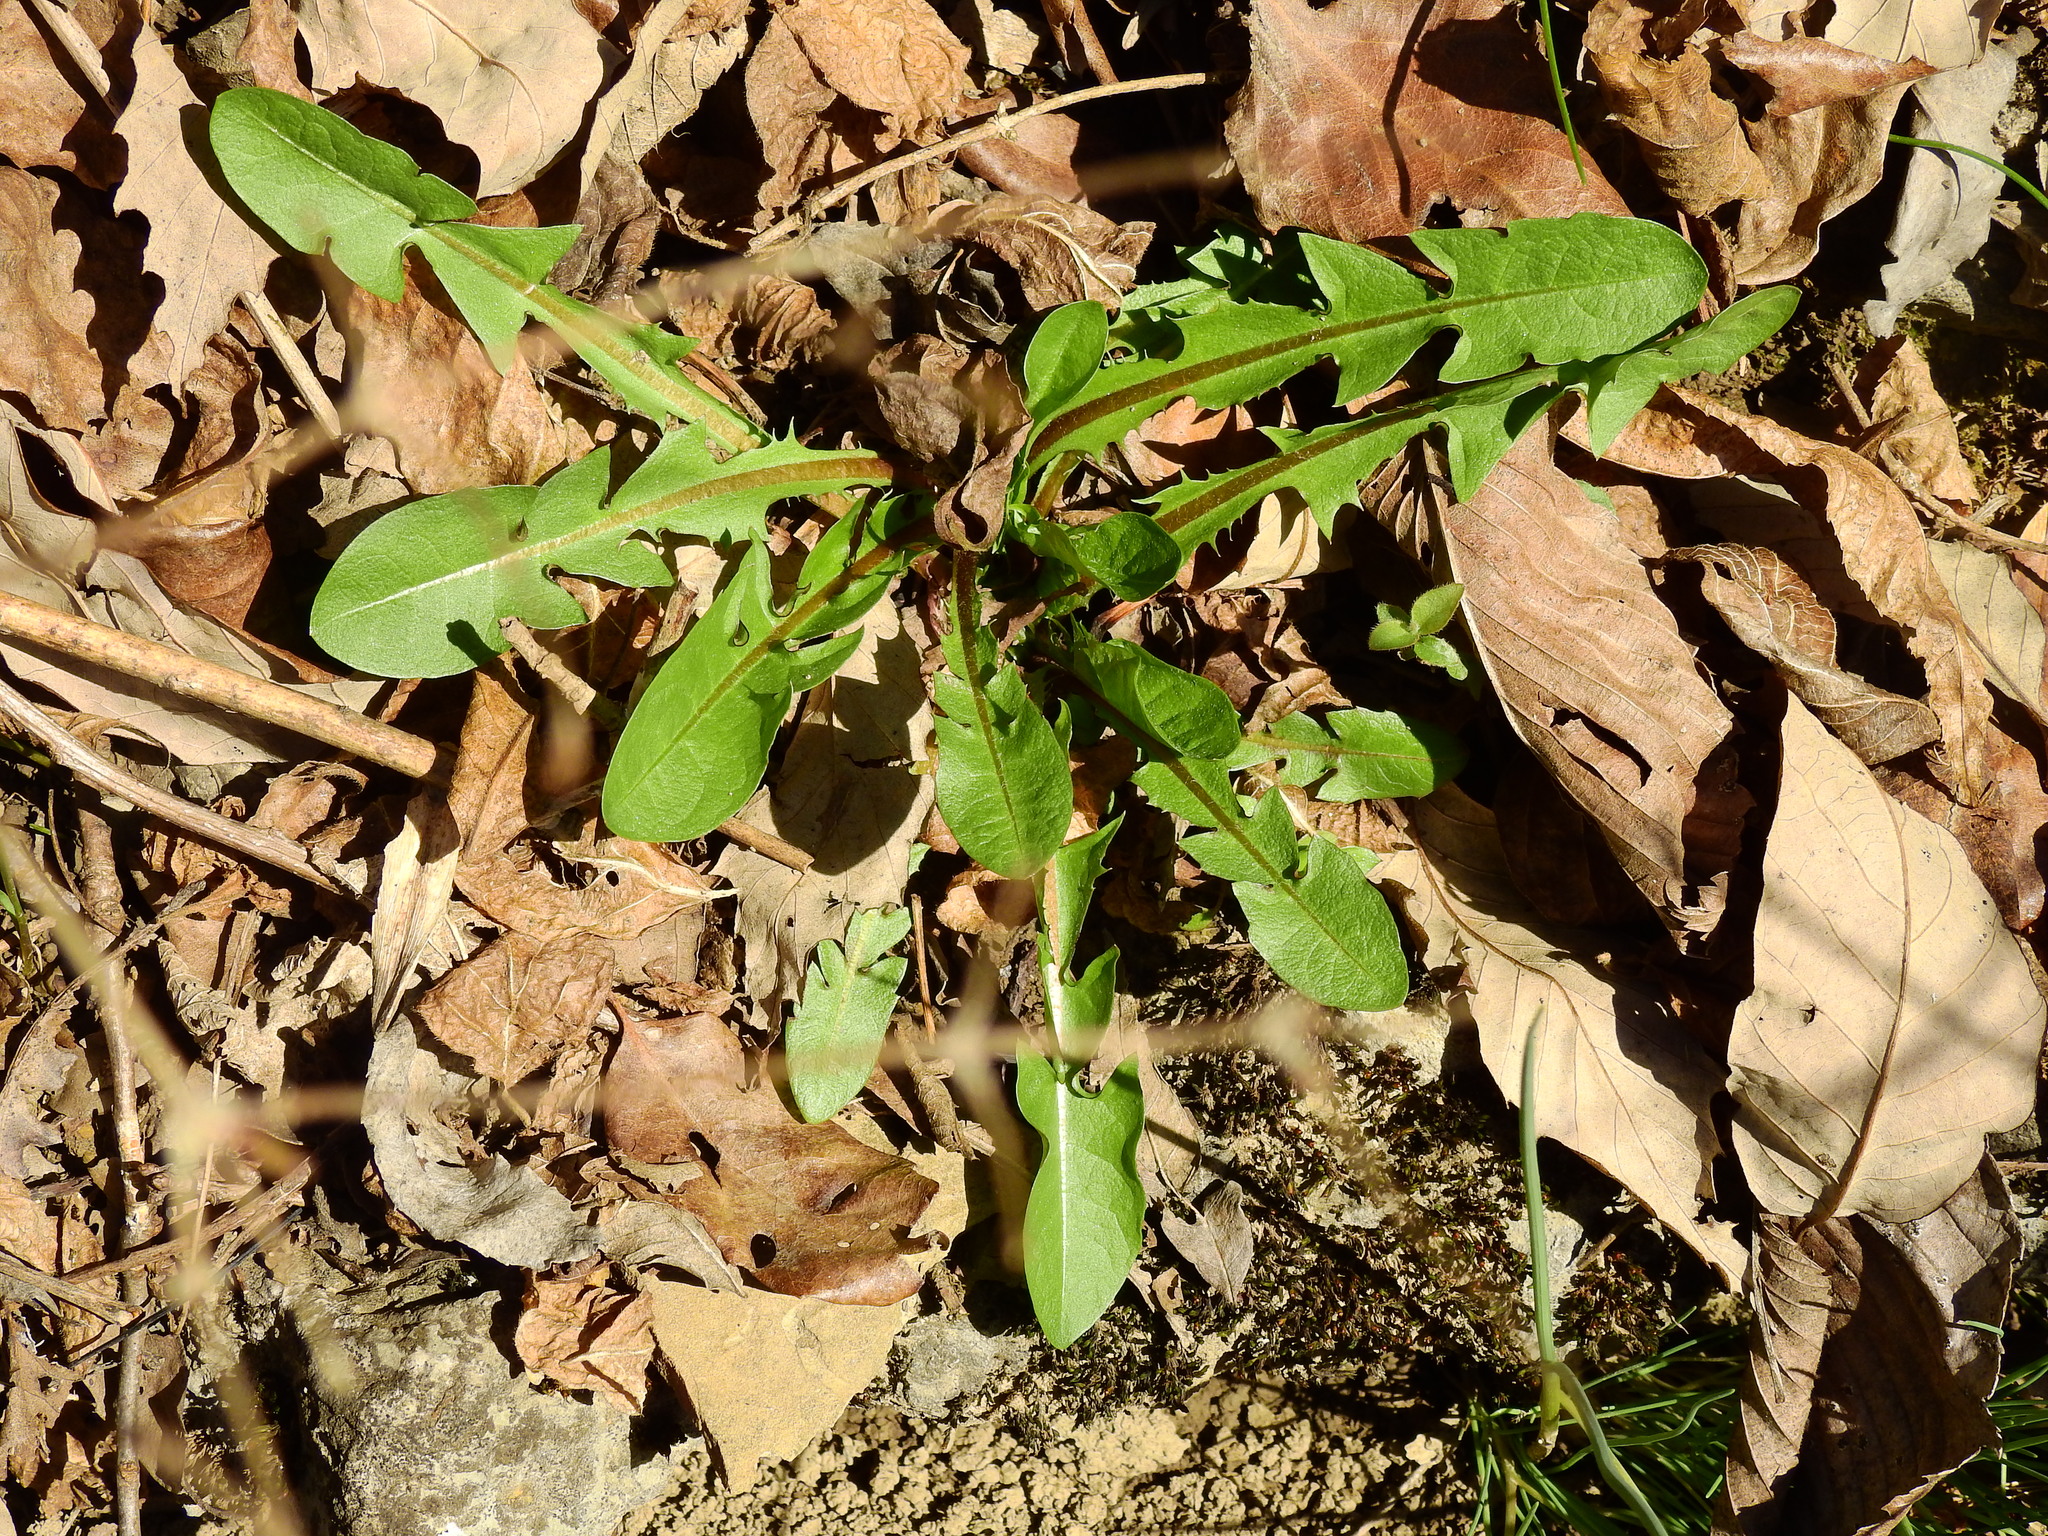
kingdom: Plantae
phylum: Tracheophyta
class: Magnoliopsida
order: Asterales
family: Asteraceae
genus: Taraxacum
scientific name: Taraxacum officinale
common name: Common dandelion
